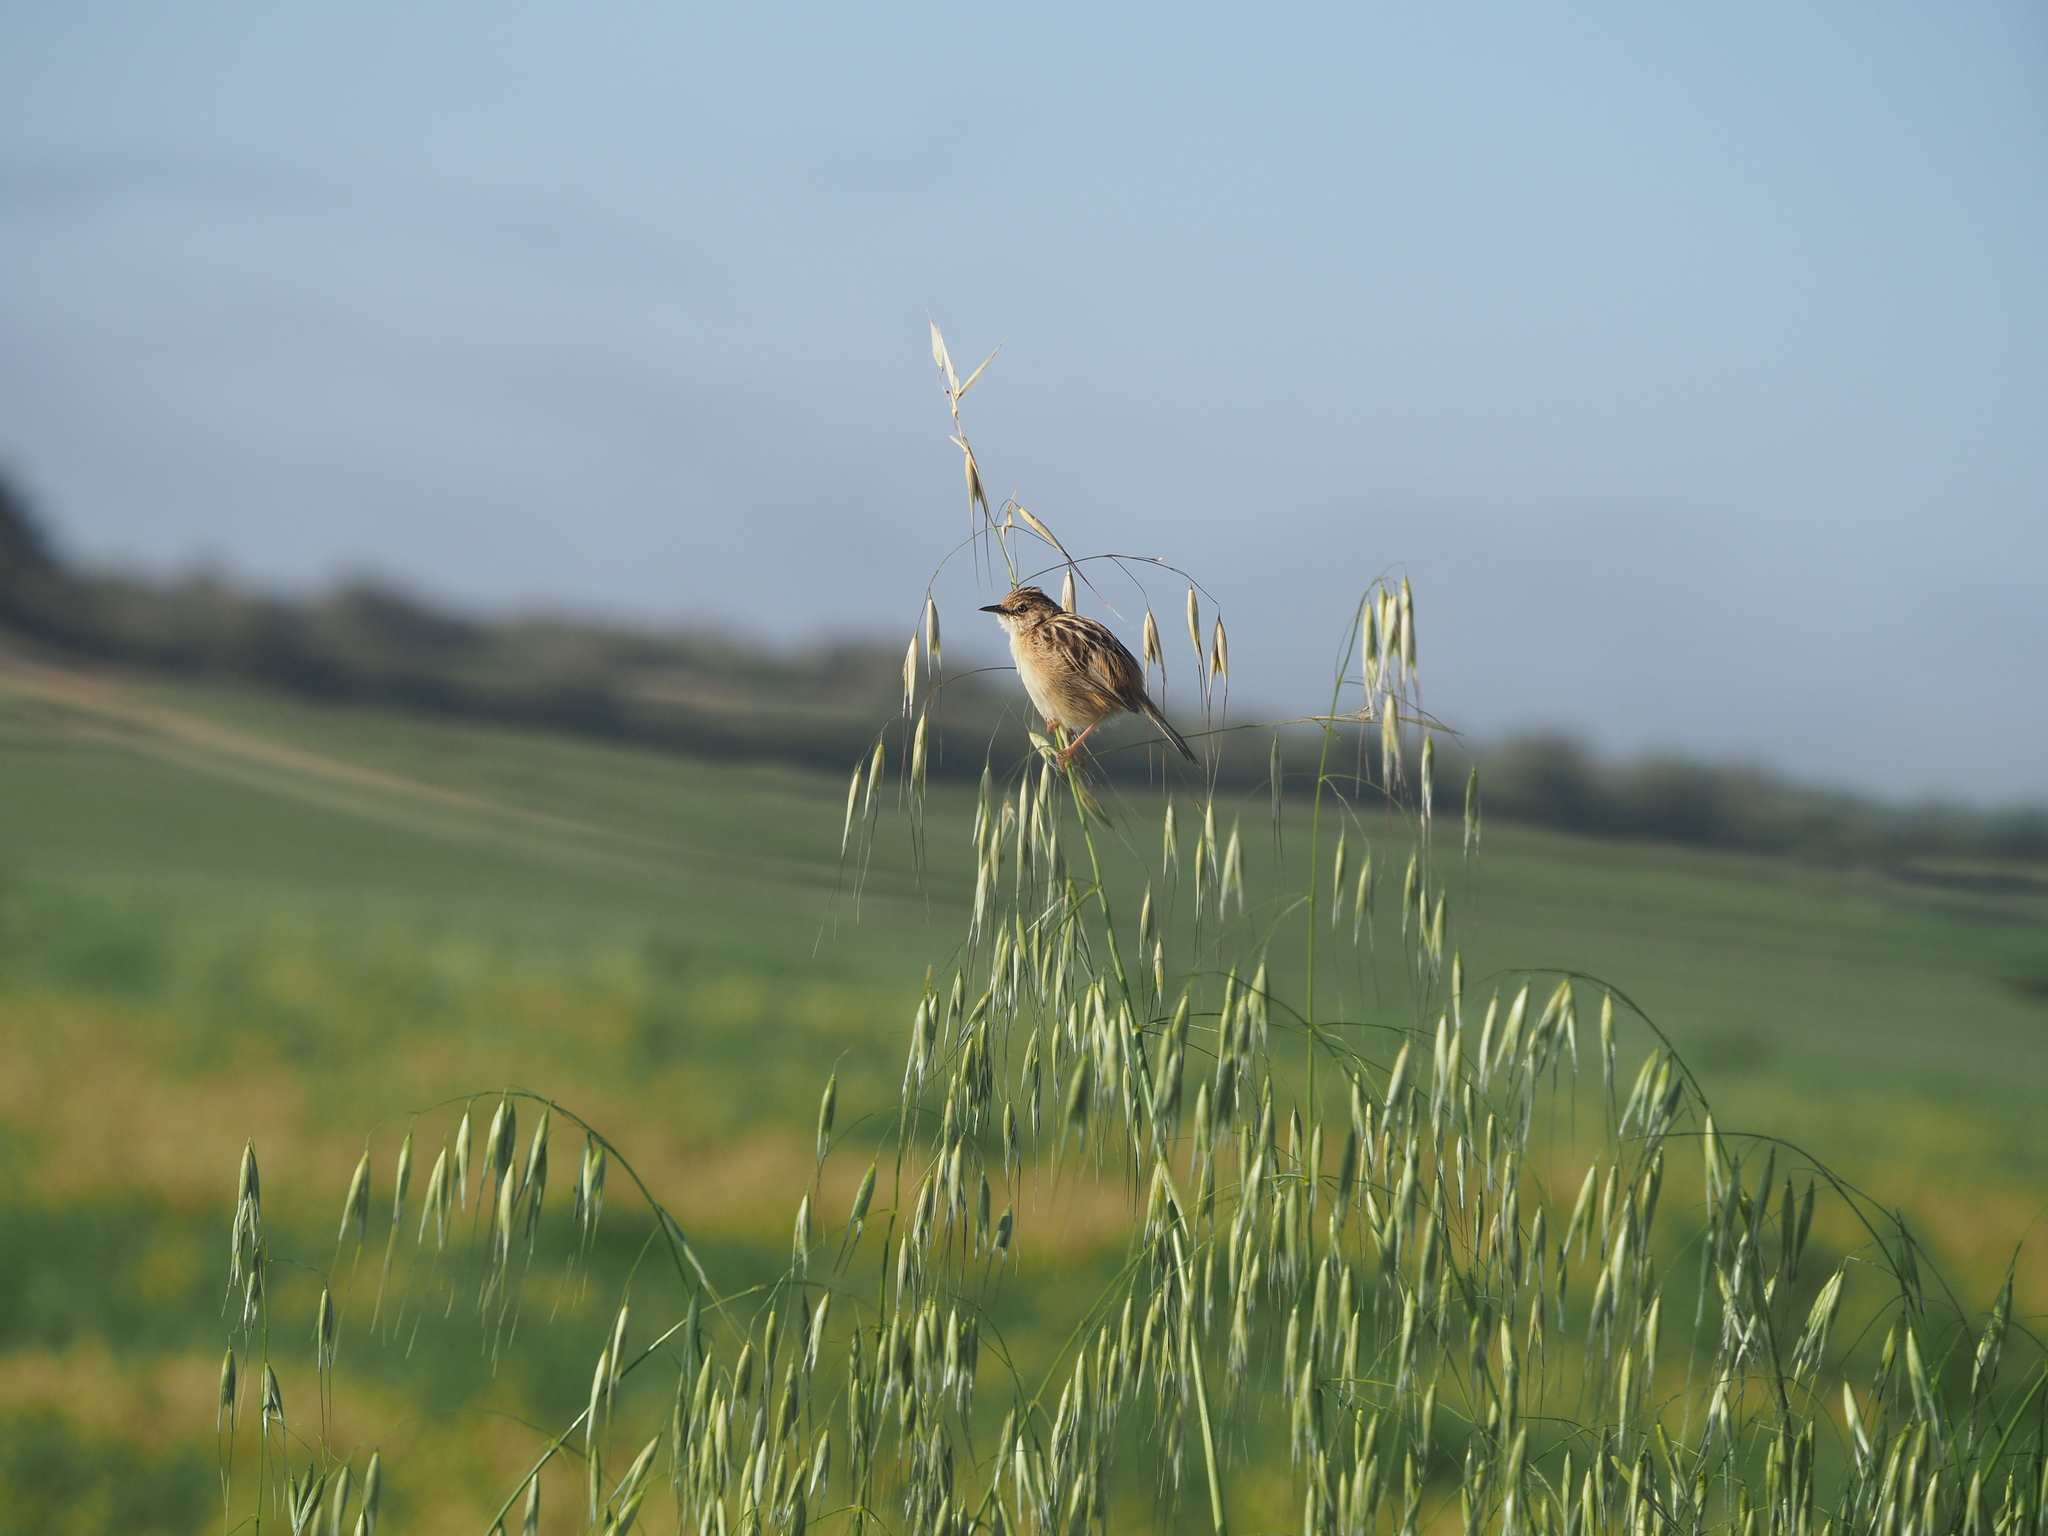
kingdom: Animalia
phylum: Chordata
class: Aves
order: Passeriformes
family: Cisticolidae
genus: Cisticola
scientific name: Cisticola juncidis
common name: Zitting cisticola
